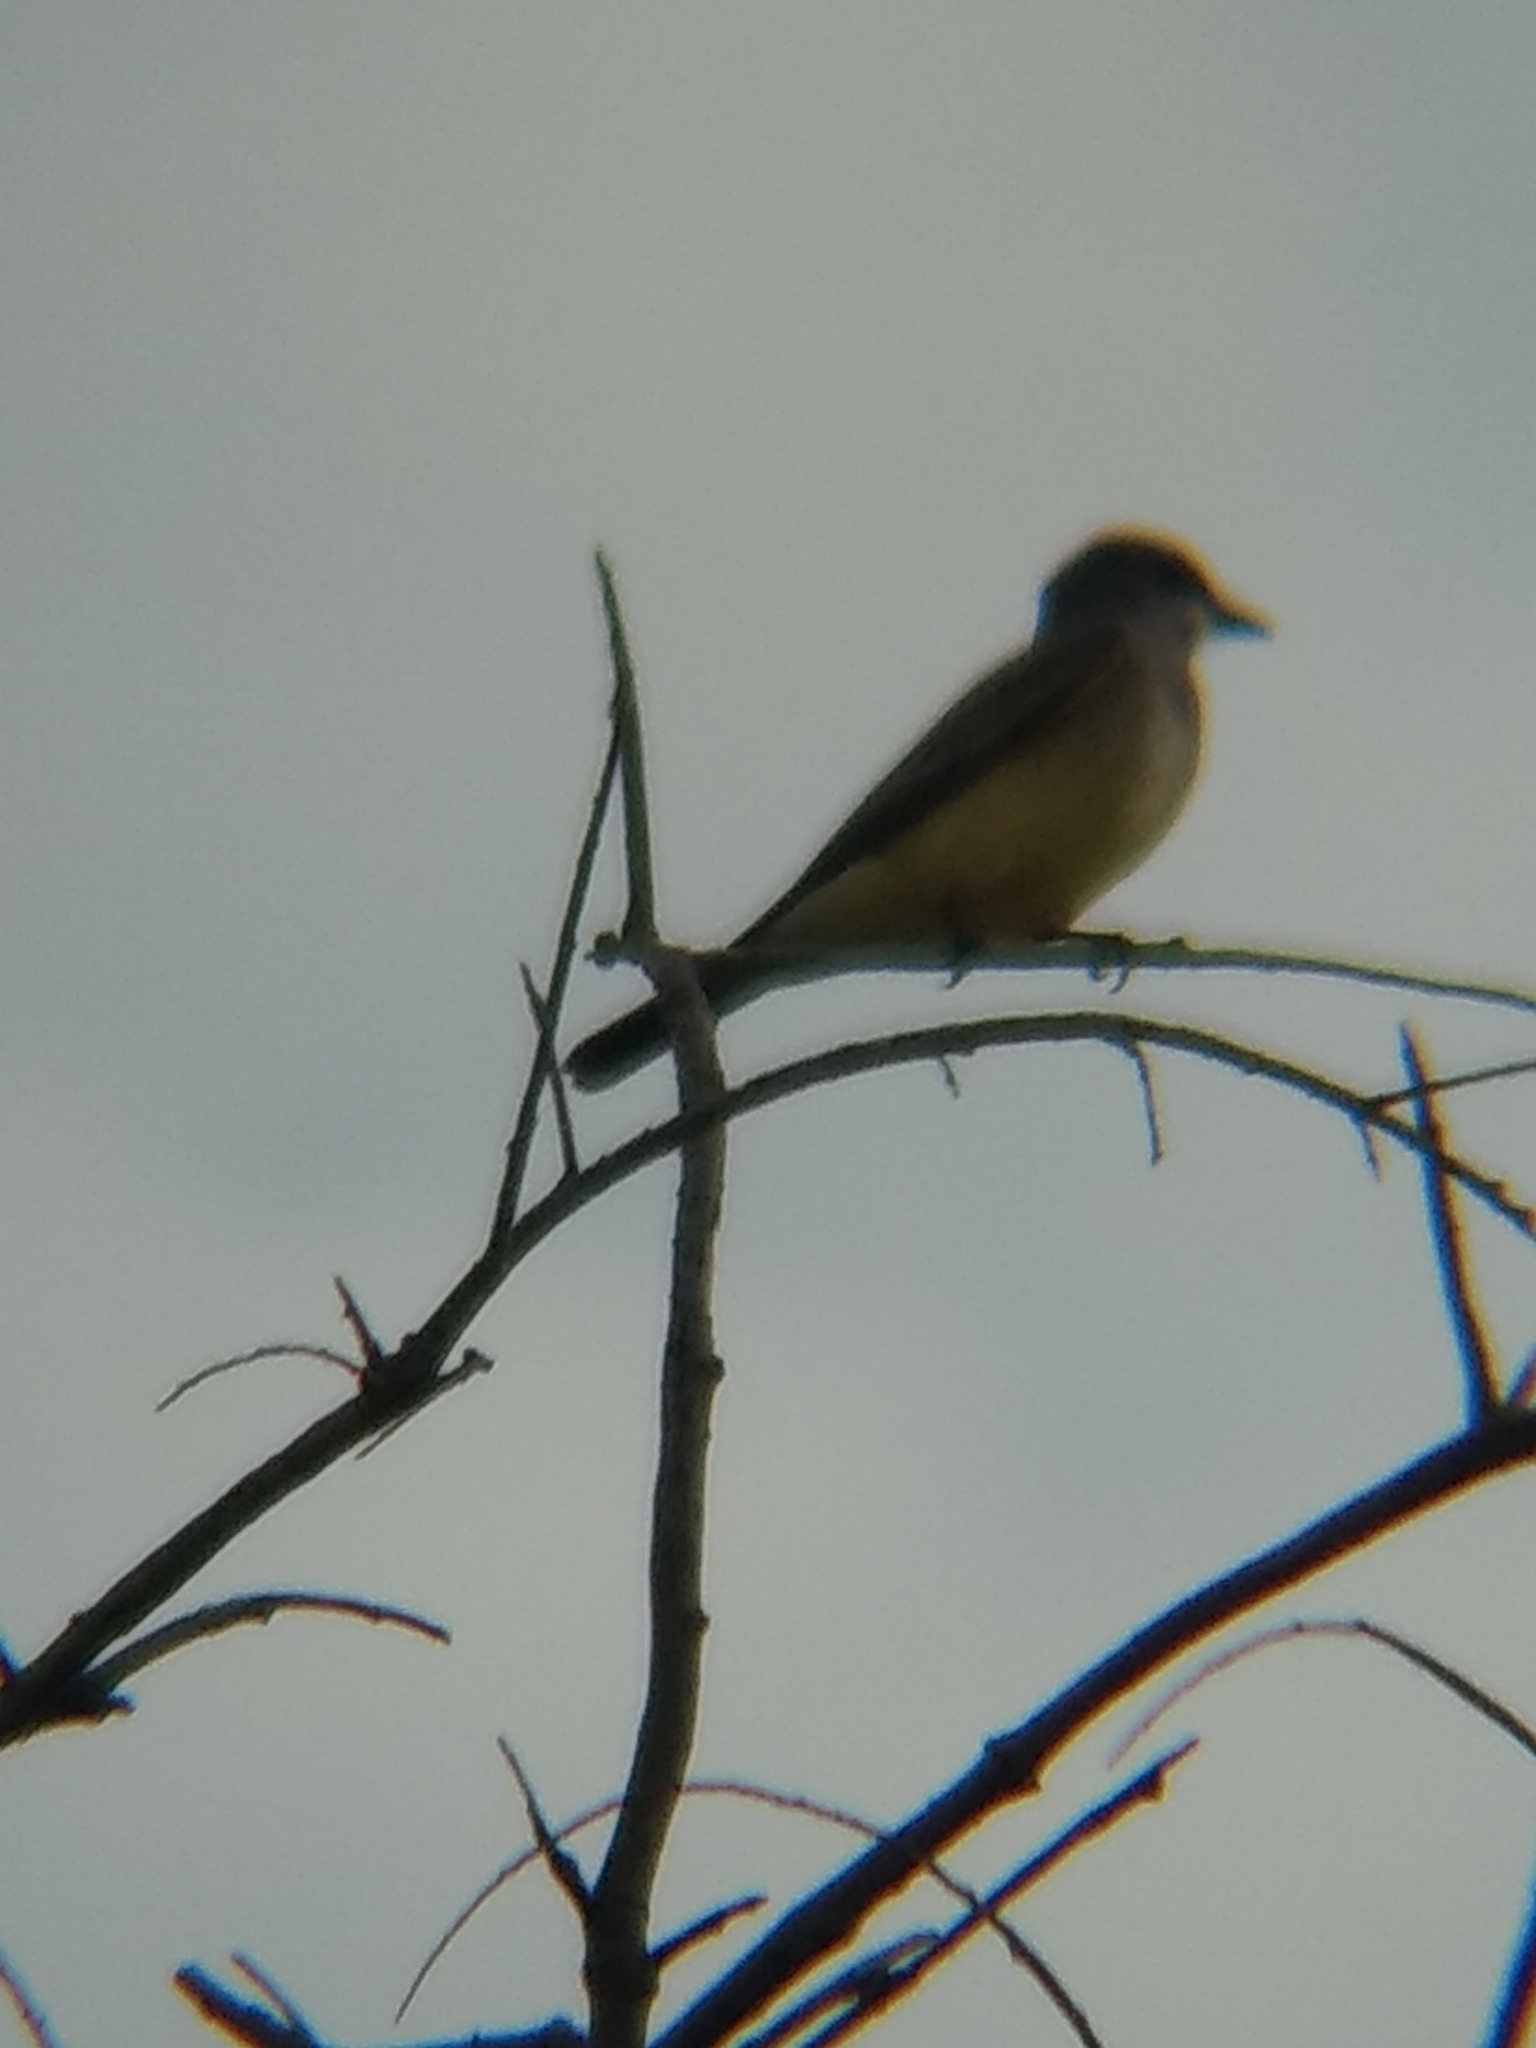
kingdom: Animalia
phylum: Chordata
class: Aves
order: Passeriformes
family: Tyrannidae
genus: Tyrannus
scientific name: Tyrannus vociferans
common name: Cassin's kingbird
